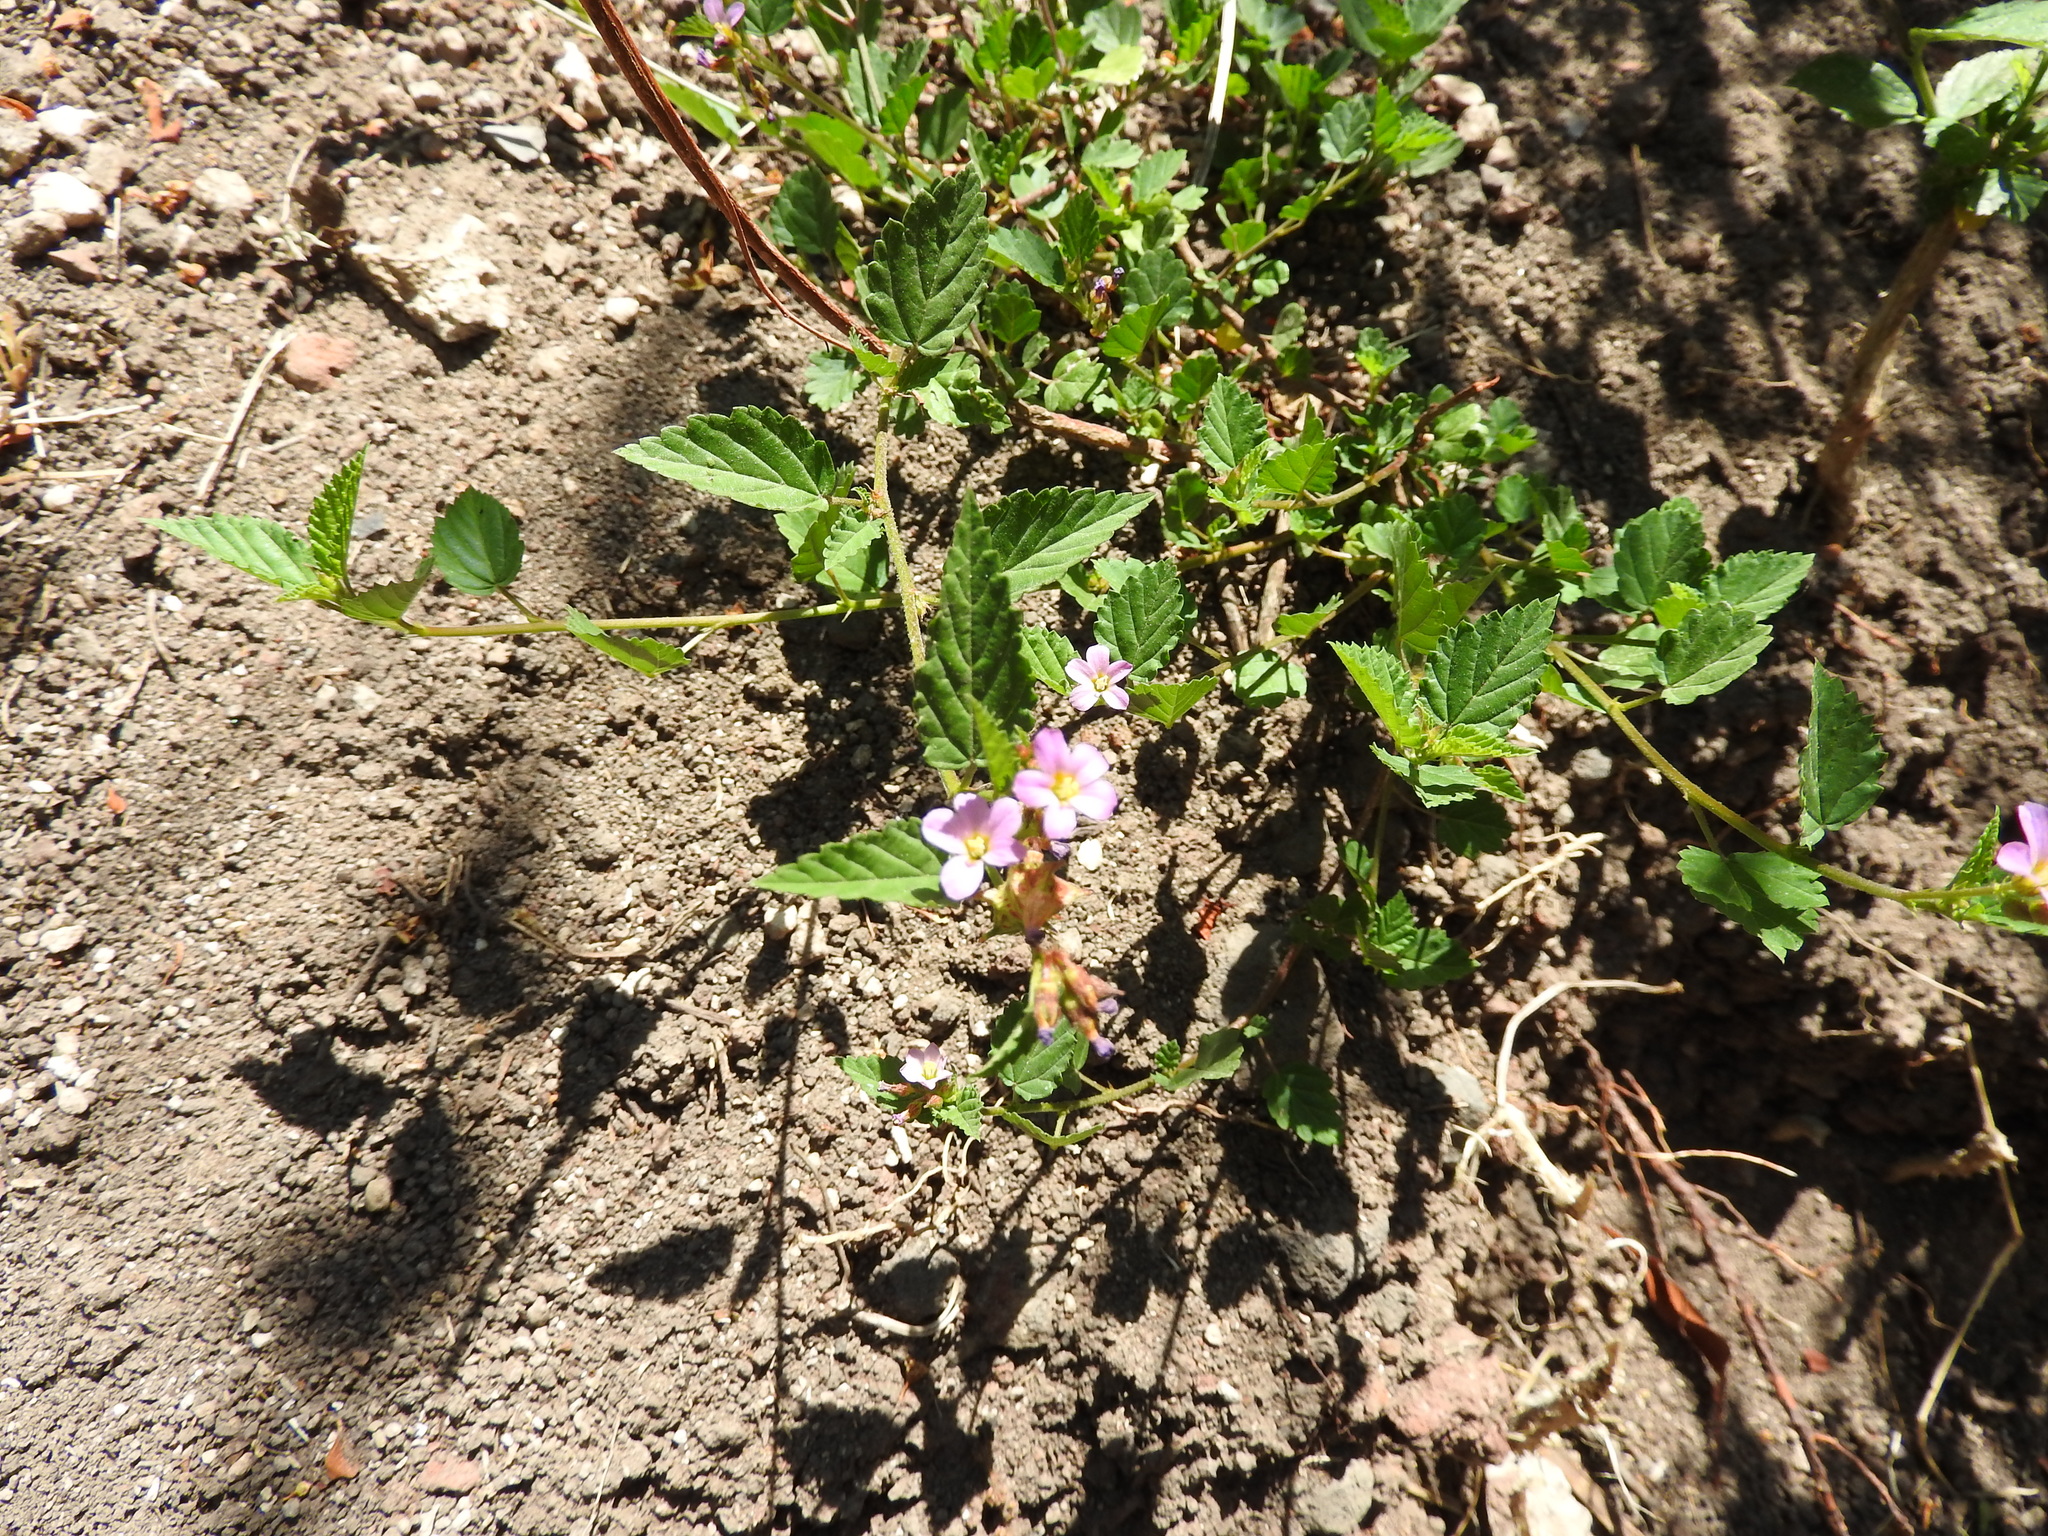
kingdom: Plantae
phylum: Tracheophyta
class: Magnoliopsida
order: Malvales
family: Malvaceae
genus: Melochia
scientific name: Melochia pyramidata
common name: Pyramidflower
